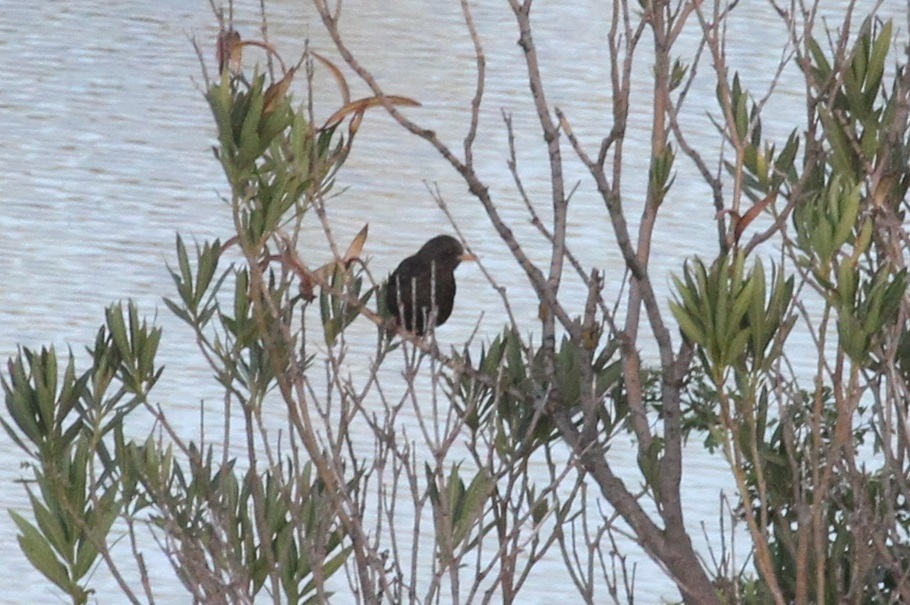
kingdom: Animalia
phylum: Chordata
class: Aves
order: Passeriformes
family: Turdidae
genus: Turdus
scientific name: Turdus merula
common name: Common blackbird
